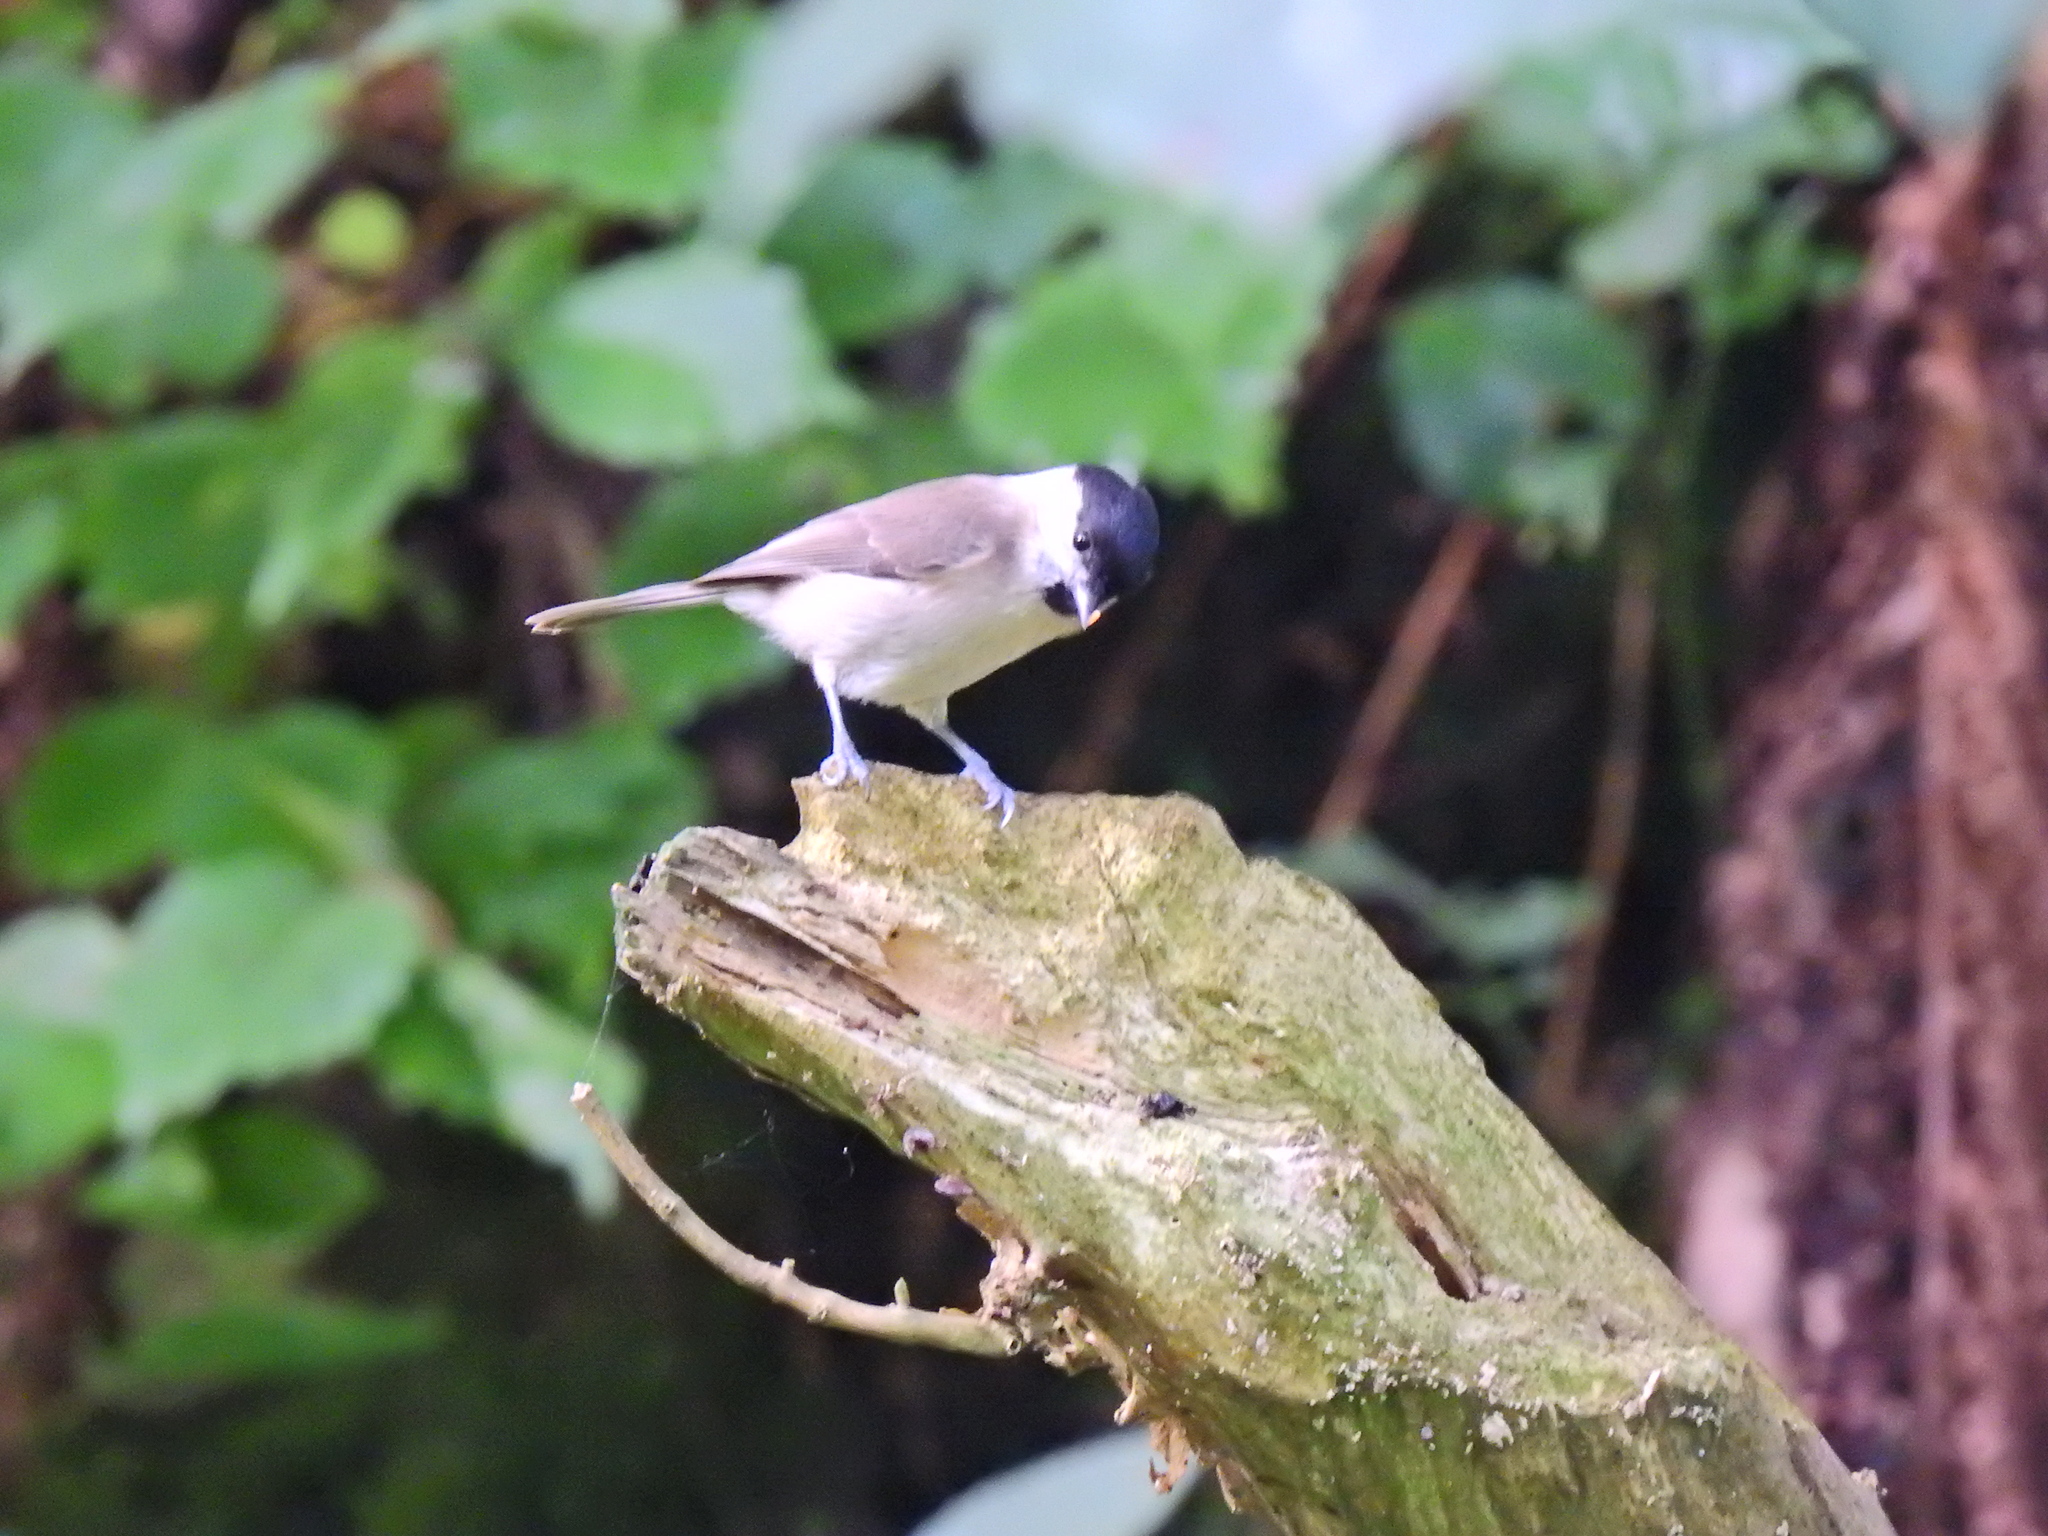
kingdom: Animalia
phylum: Chordata
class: Aves
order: Passeriformes
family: Paridae
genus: Poecile
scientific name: Poecile palustris
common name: Marsh tit
